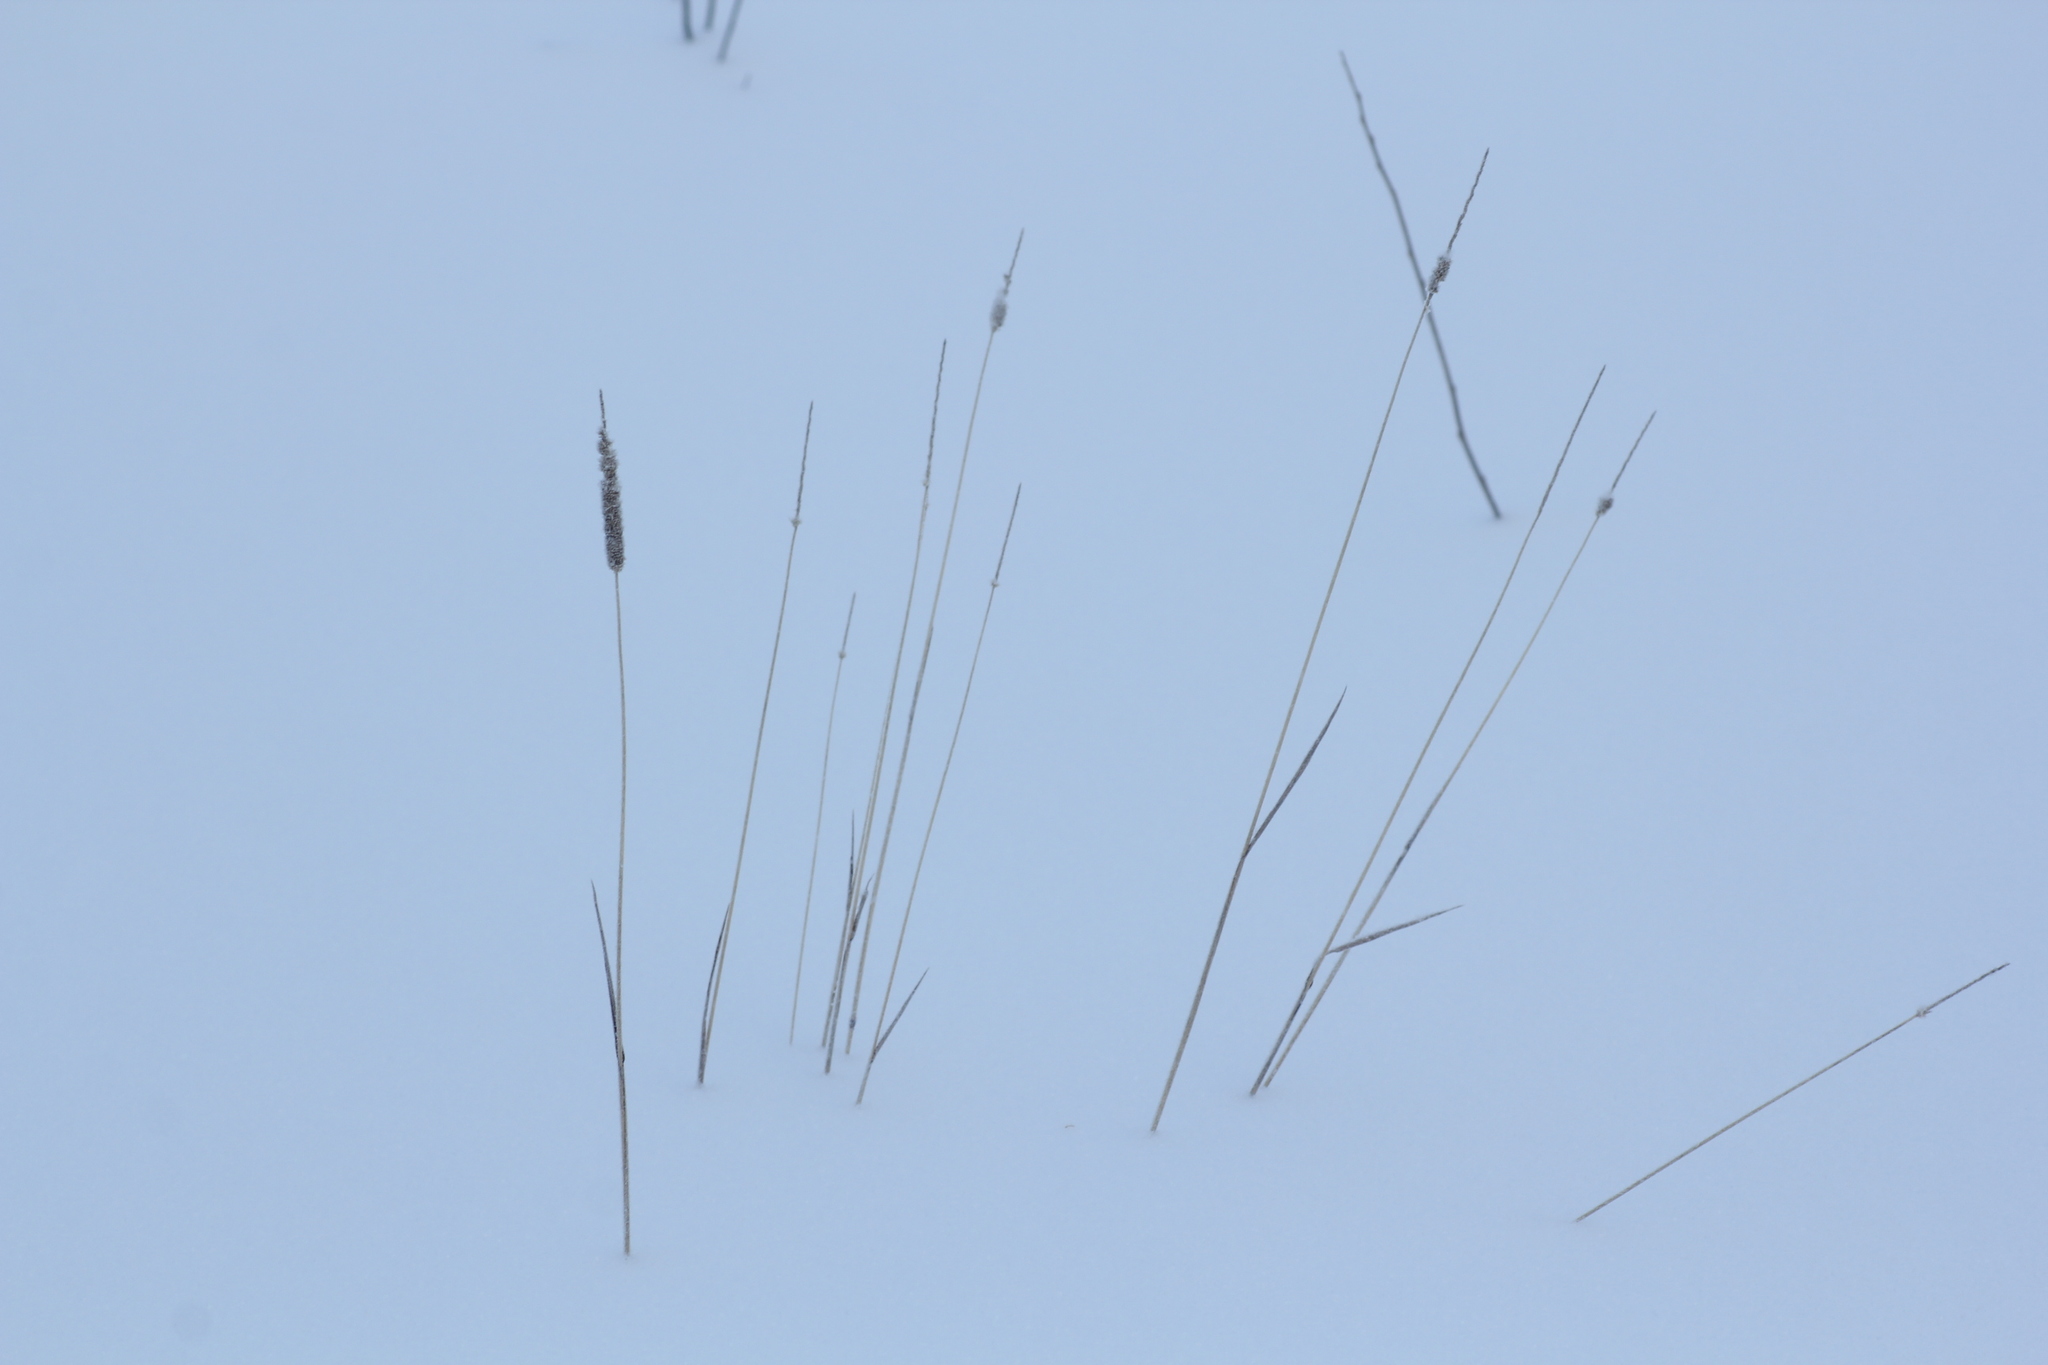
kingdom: Plantae
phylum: Tracheophyta
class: Liliopsida
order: Poales
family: Poaceae
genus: Phleum
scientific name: Phleum pratense
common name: Timothy grass
